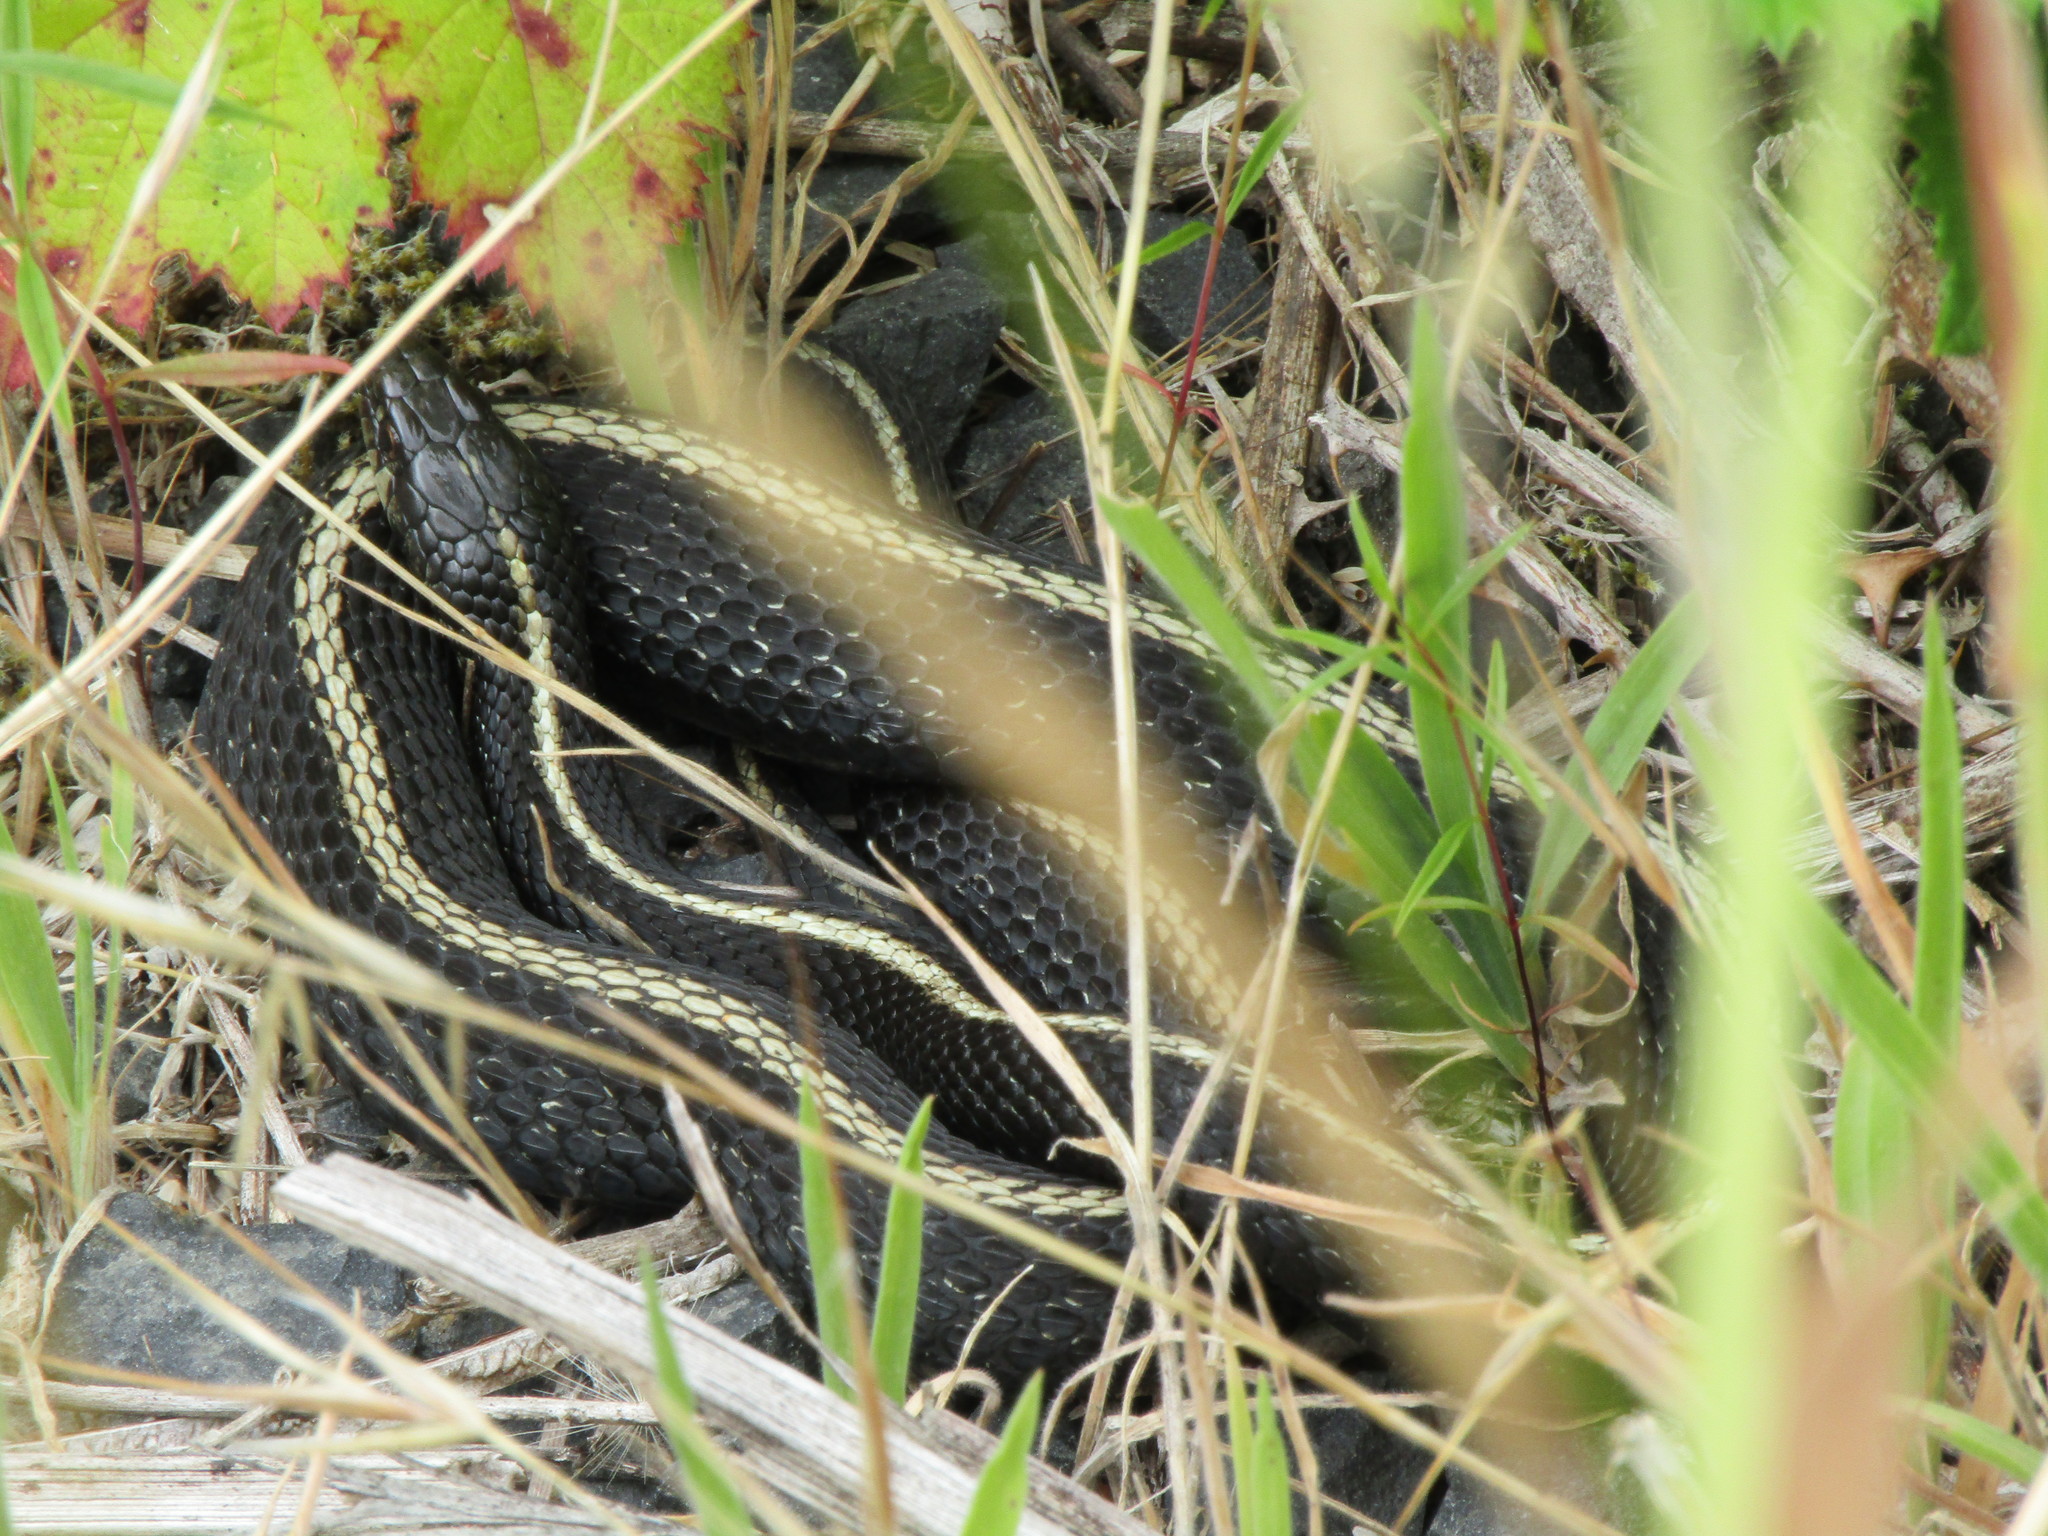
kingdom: Animalia
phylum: Chordata
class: Squamata
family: Colubridae
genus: Thamnophis
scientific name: Thamnophis ordinoides
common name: Northwestern garter snake
